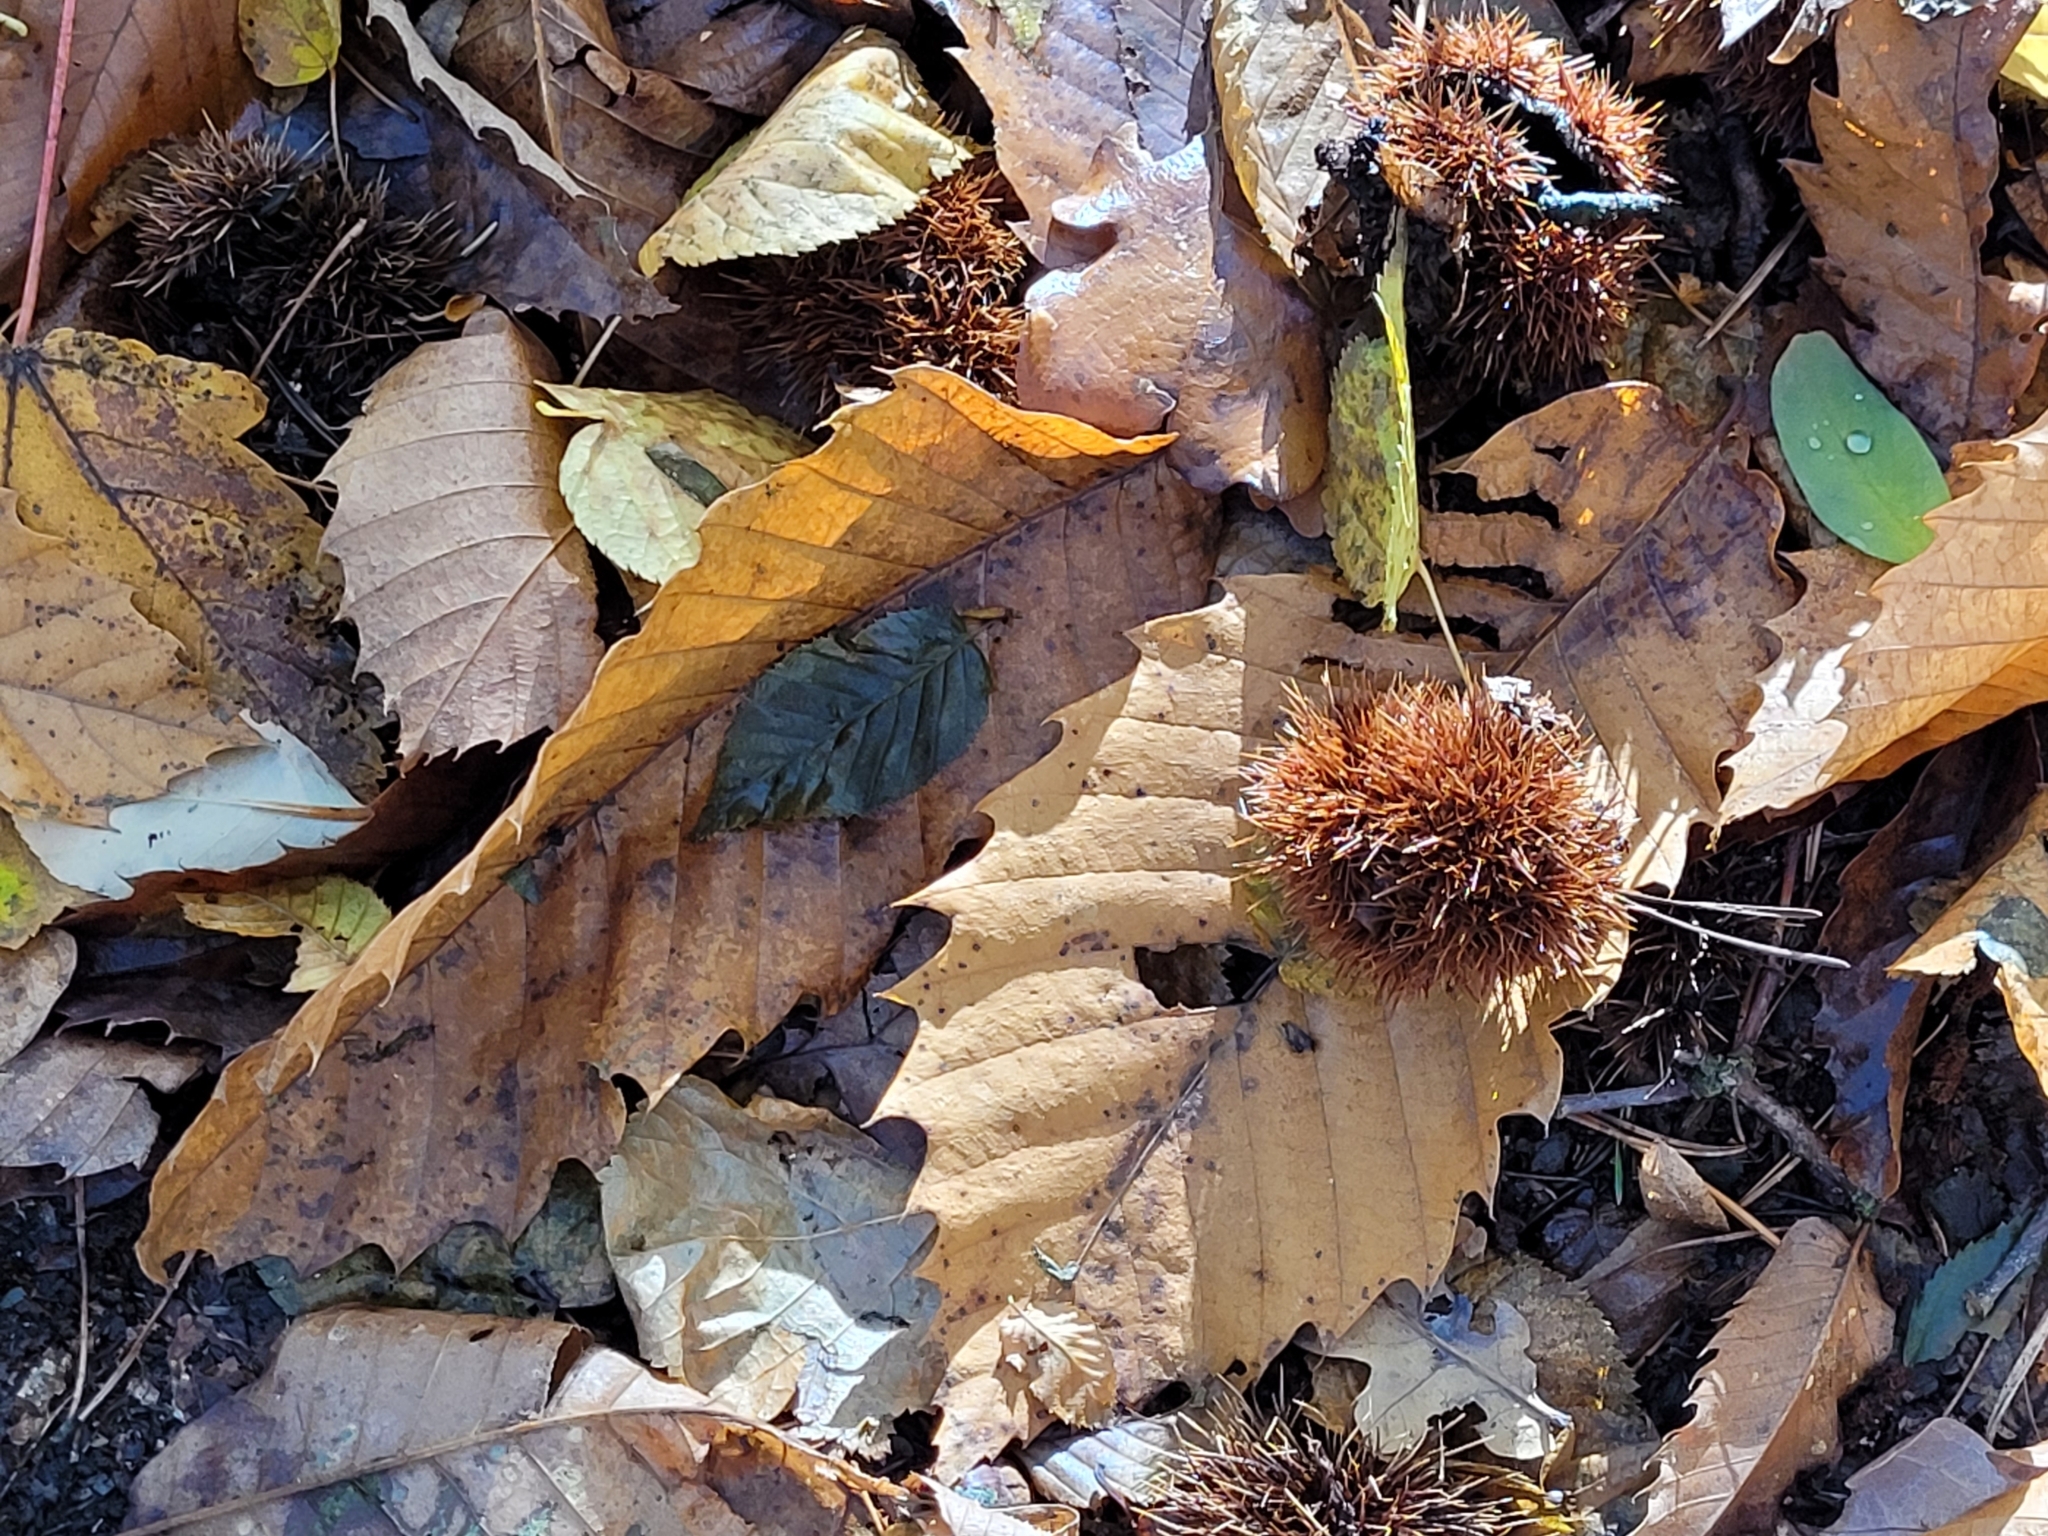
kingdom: Plantae
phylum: Tracheophyta
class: Magnoliopsida
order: Fagales
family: Fagaceae
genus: Castanea
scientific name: Castanea sativa
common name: Sweet chestnut
